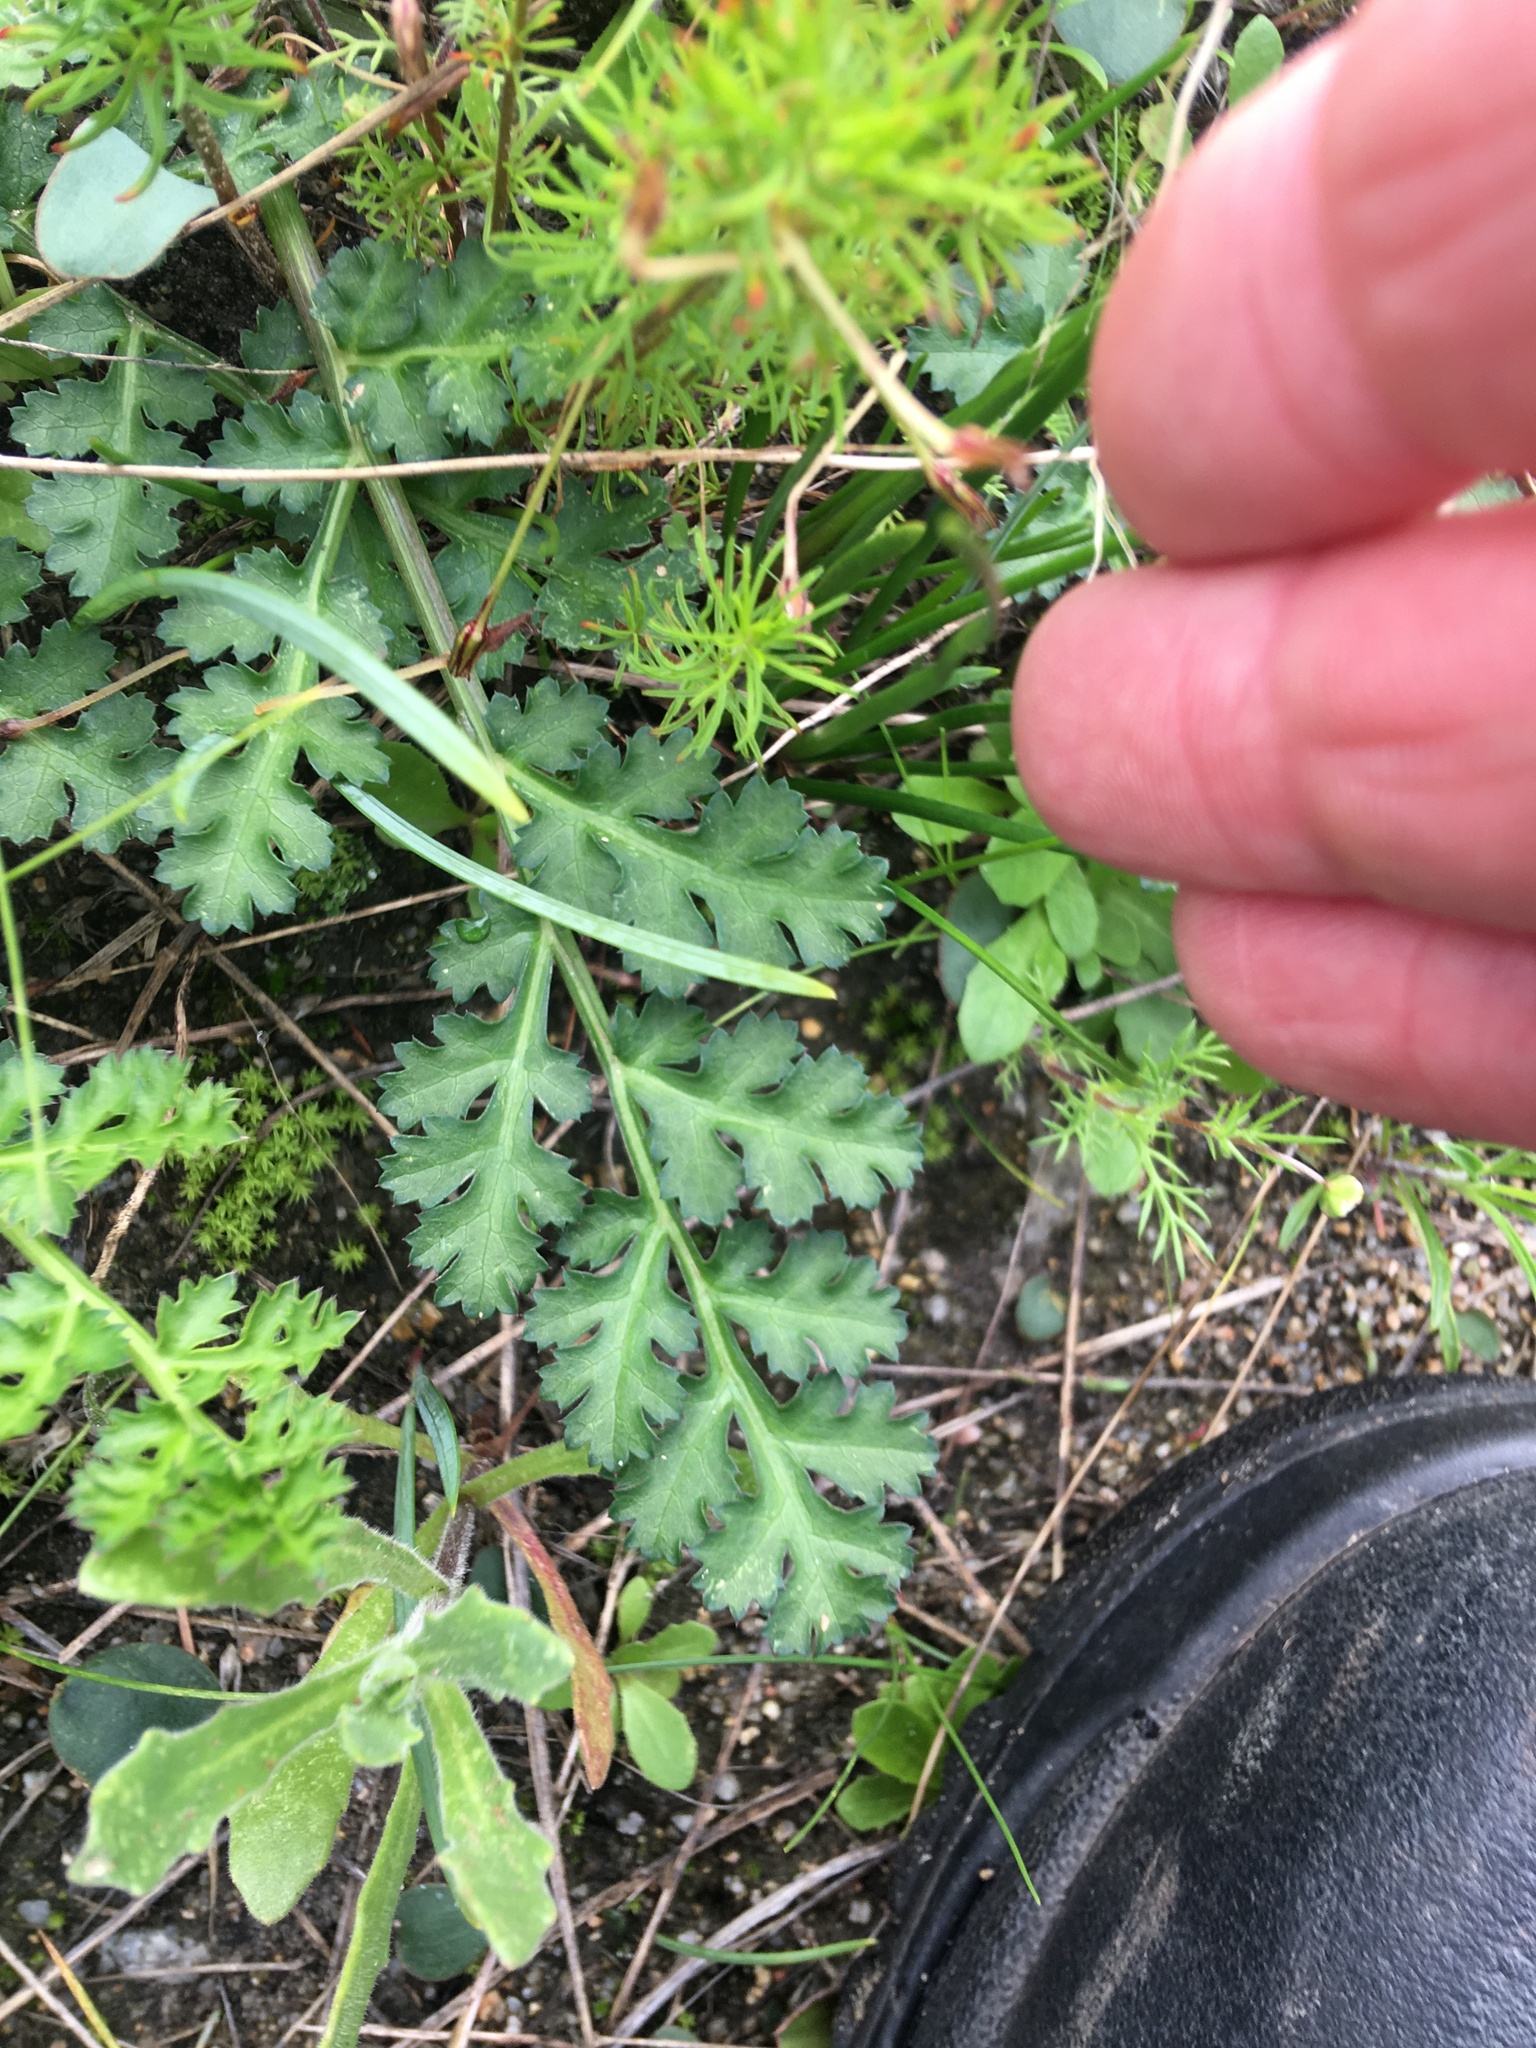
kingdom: Plantae
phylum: Tracheophyta
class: Magnoliopsida
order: Apiales
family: Apiaceae
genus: Annesorhiza
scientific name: Annesorhiza nuda
